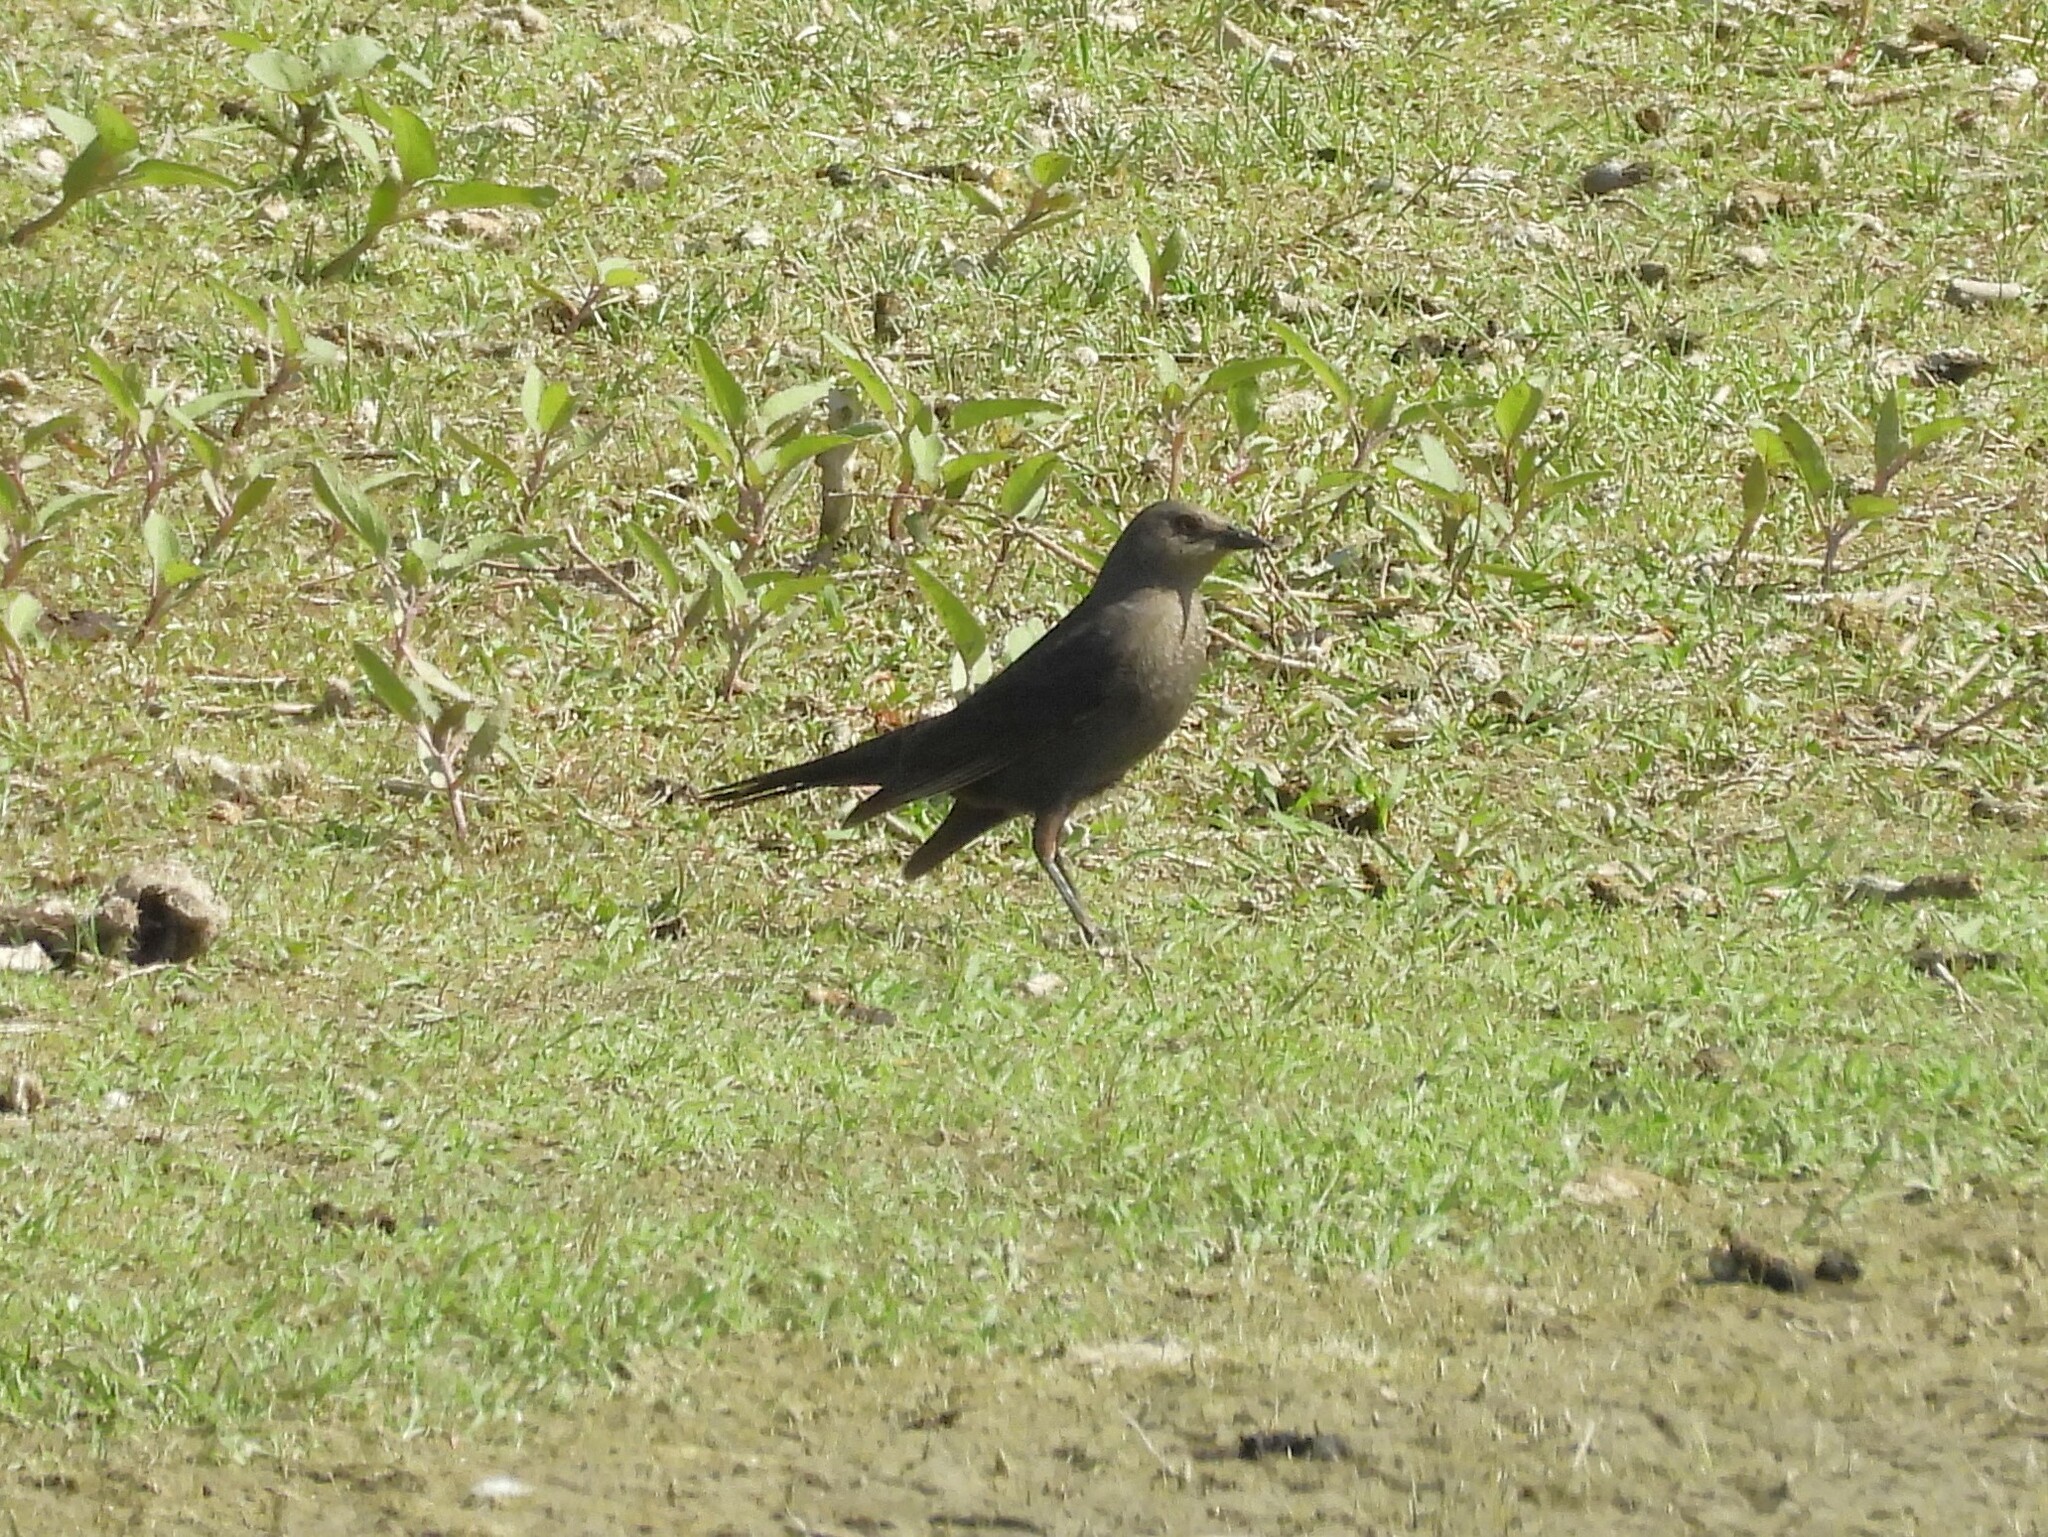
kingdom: Animalia
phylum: Chordata
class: Aves
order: Passeriformes
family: Icteridae
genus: Euphagus
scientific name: Euphagus cyanocephalus
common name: Brewer's blackbird
